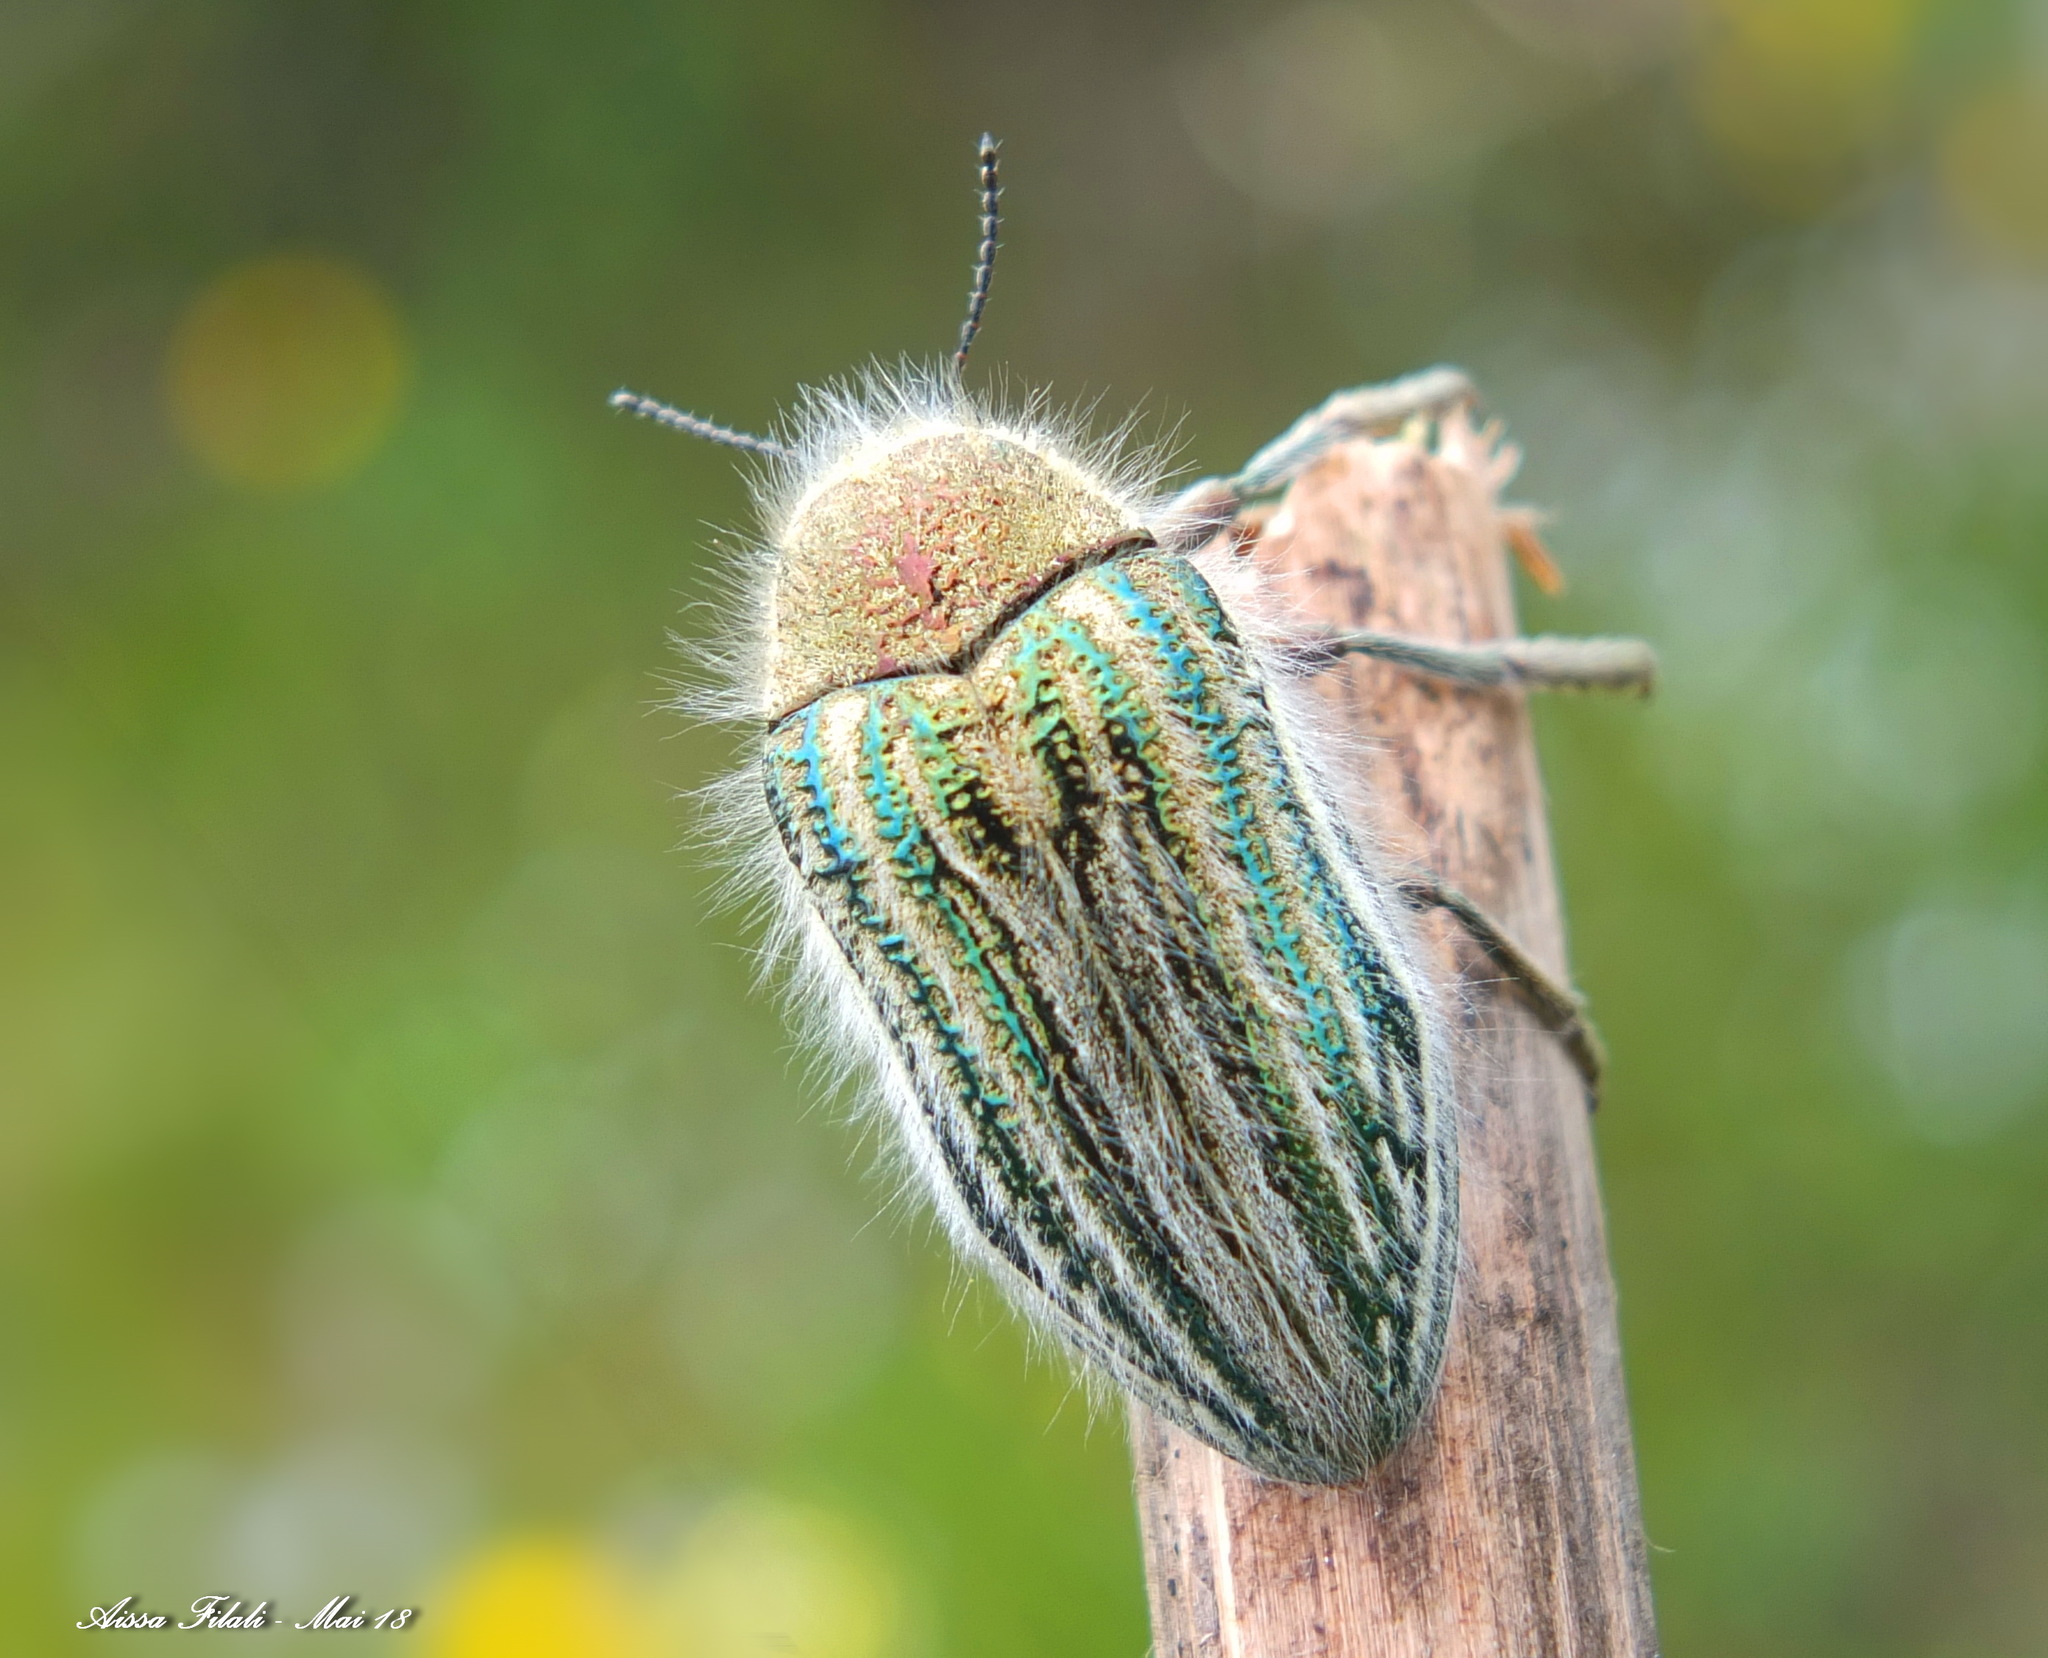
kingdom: Animalia
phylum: Arthropoda
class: Insecta
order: Coleoptera
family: Buprestidae
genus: Julodis
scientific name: Julodis pilosa
